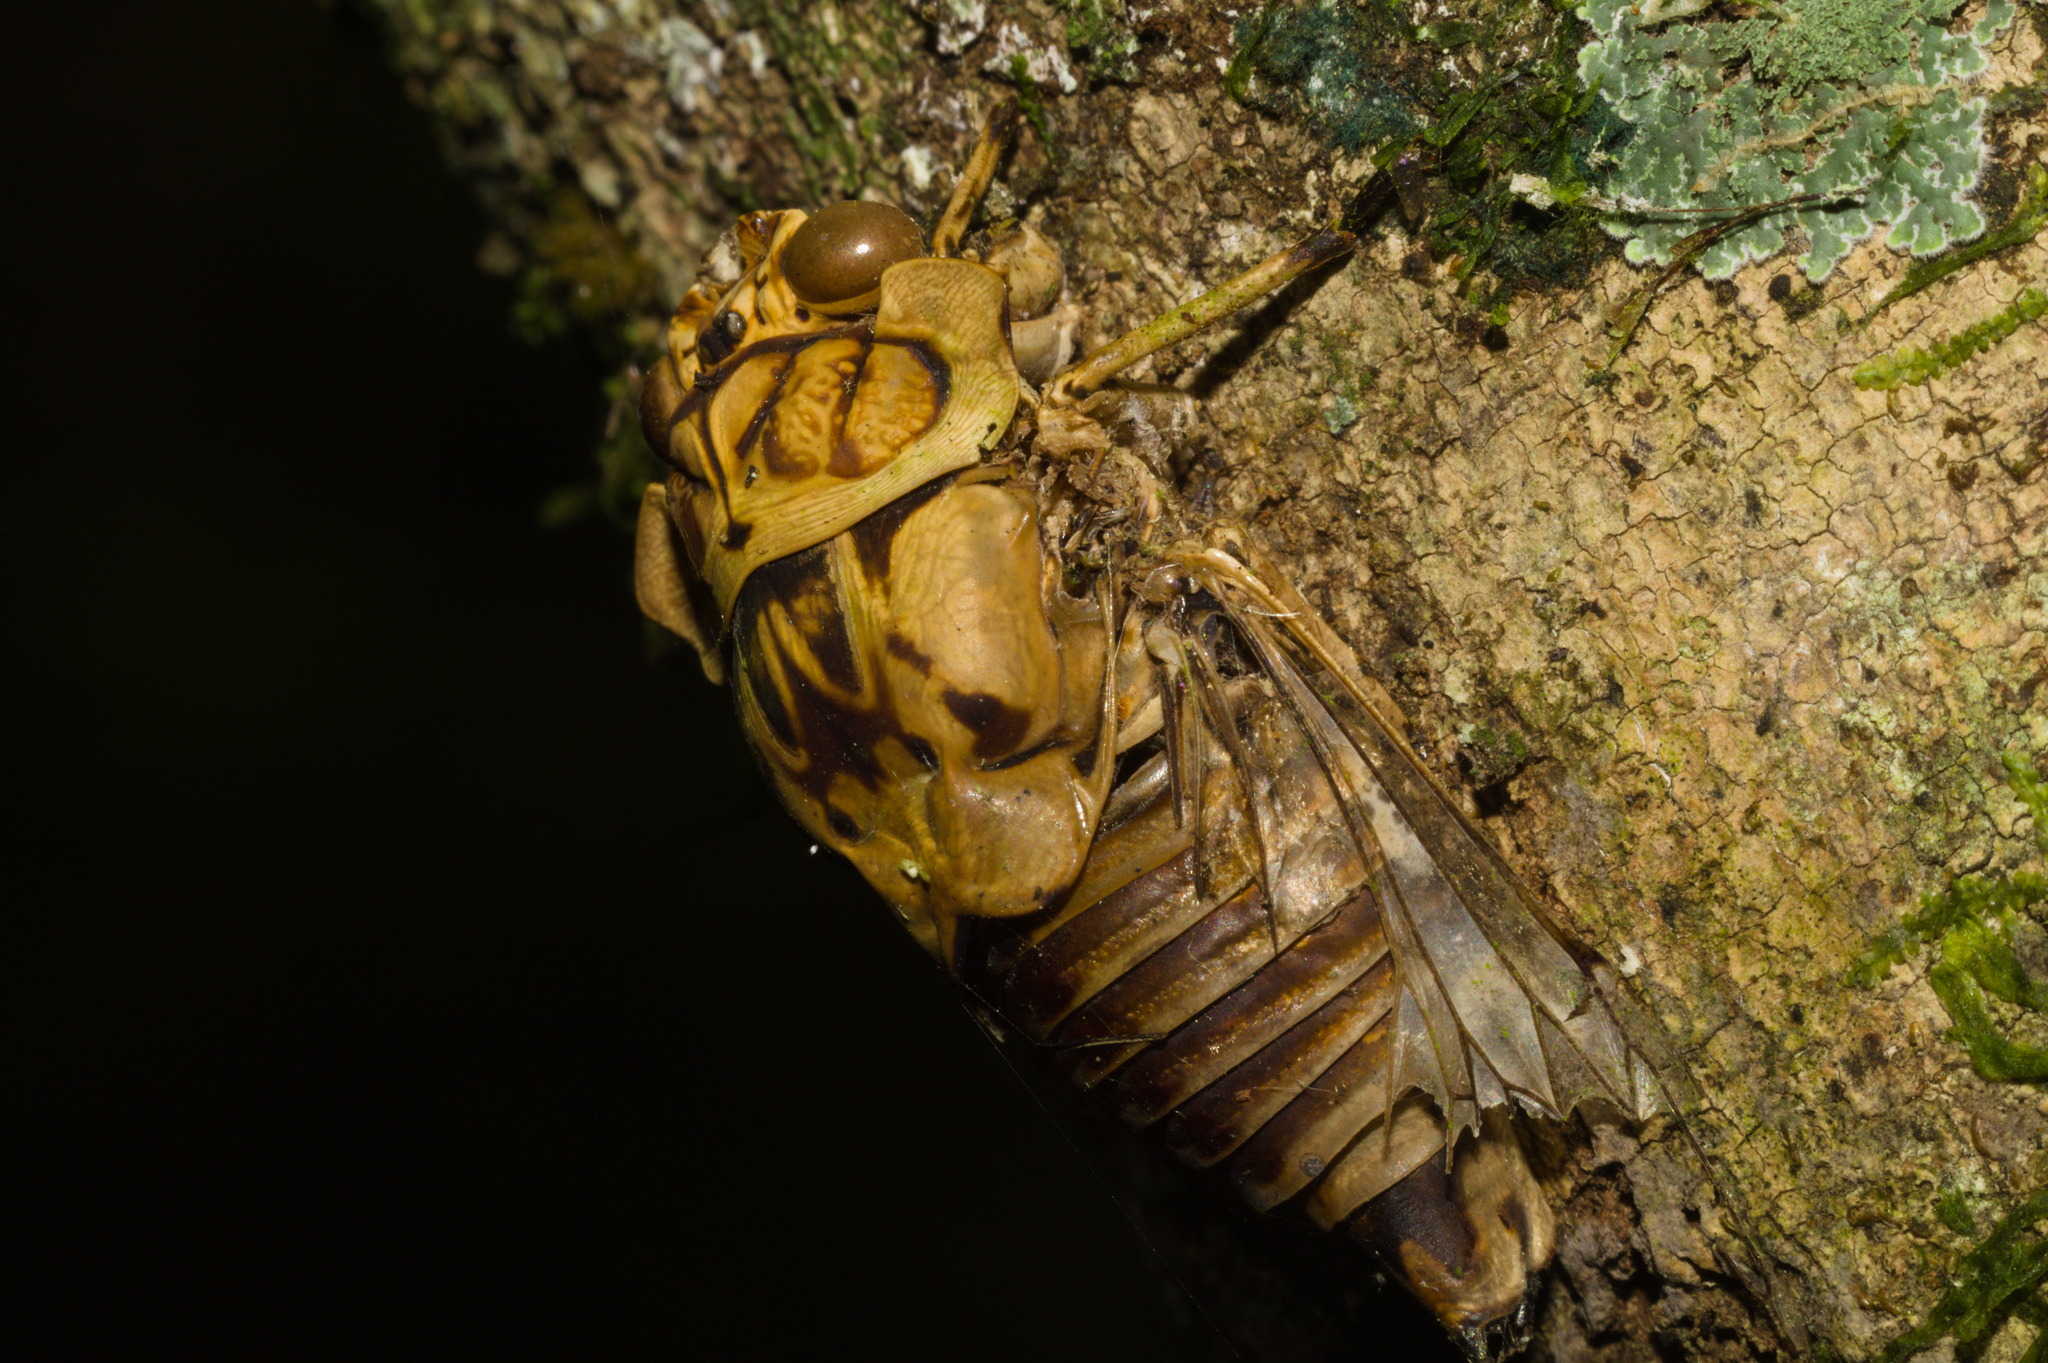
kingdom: Animalia
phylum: Arthropoda
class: Insecta
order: Hemiptera
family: Cicadidae
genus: Zammara
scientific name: Zammara tympanum
